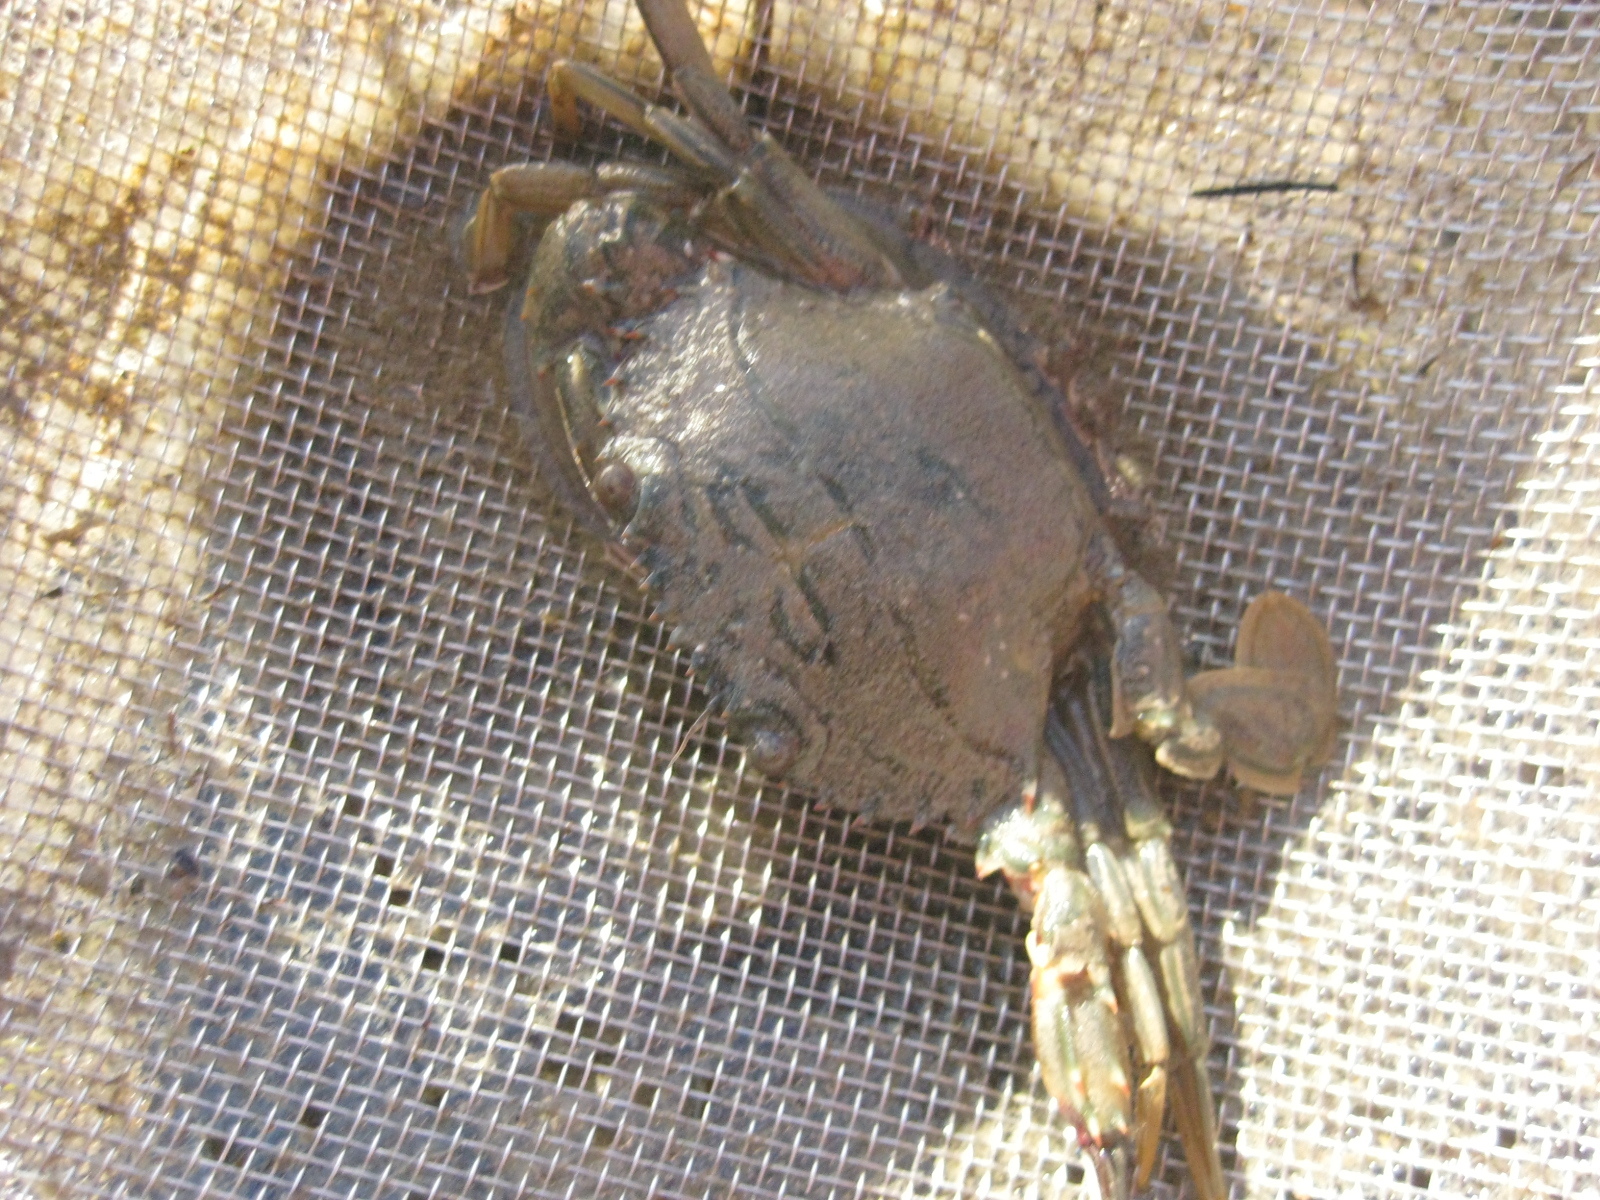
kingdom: Animalia
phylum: Arthropoda
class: Malacostraca
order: Decapoda
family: Portunidae
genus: Charybdis
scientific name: Charybdis japonica
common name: Asian paddle crab
